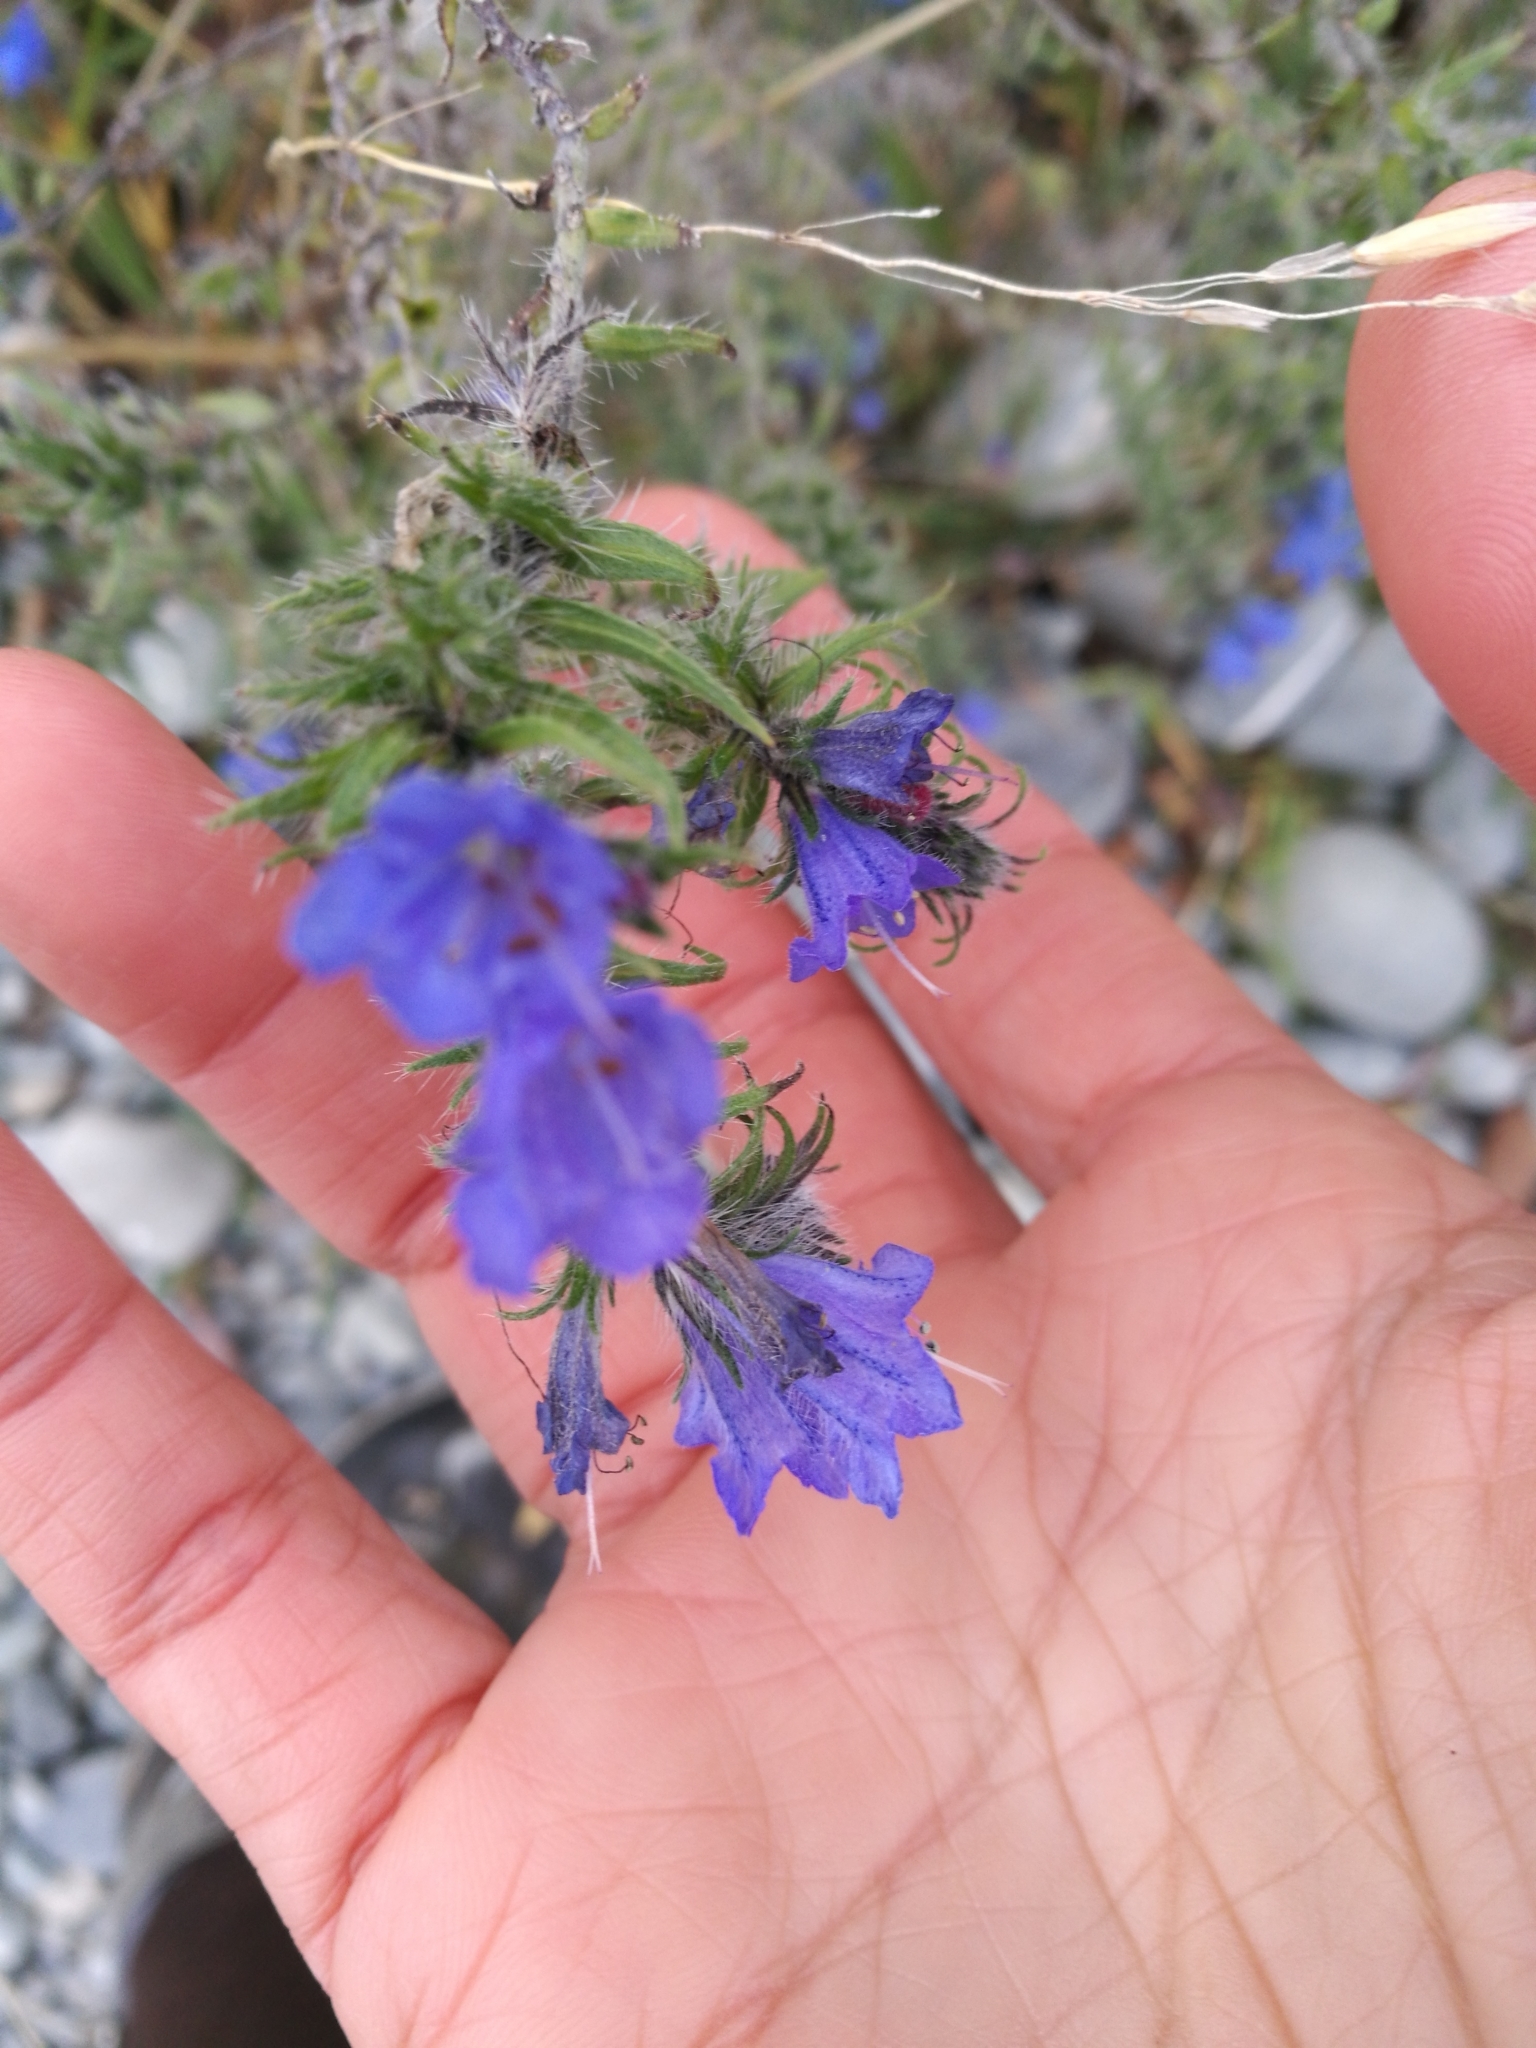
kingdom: Plantae
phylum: Tracheophyta
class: Magnoliopsida
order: Boraginales
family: Boraginaceae
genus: Echium
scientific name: Echium vulgare
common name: Common viper's bugloss
